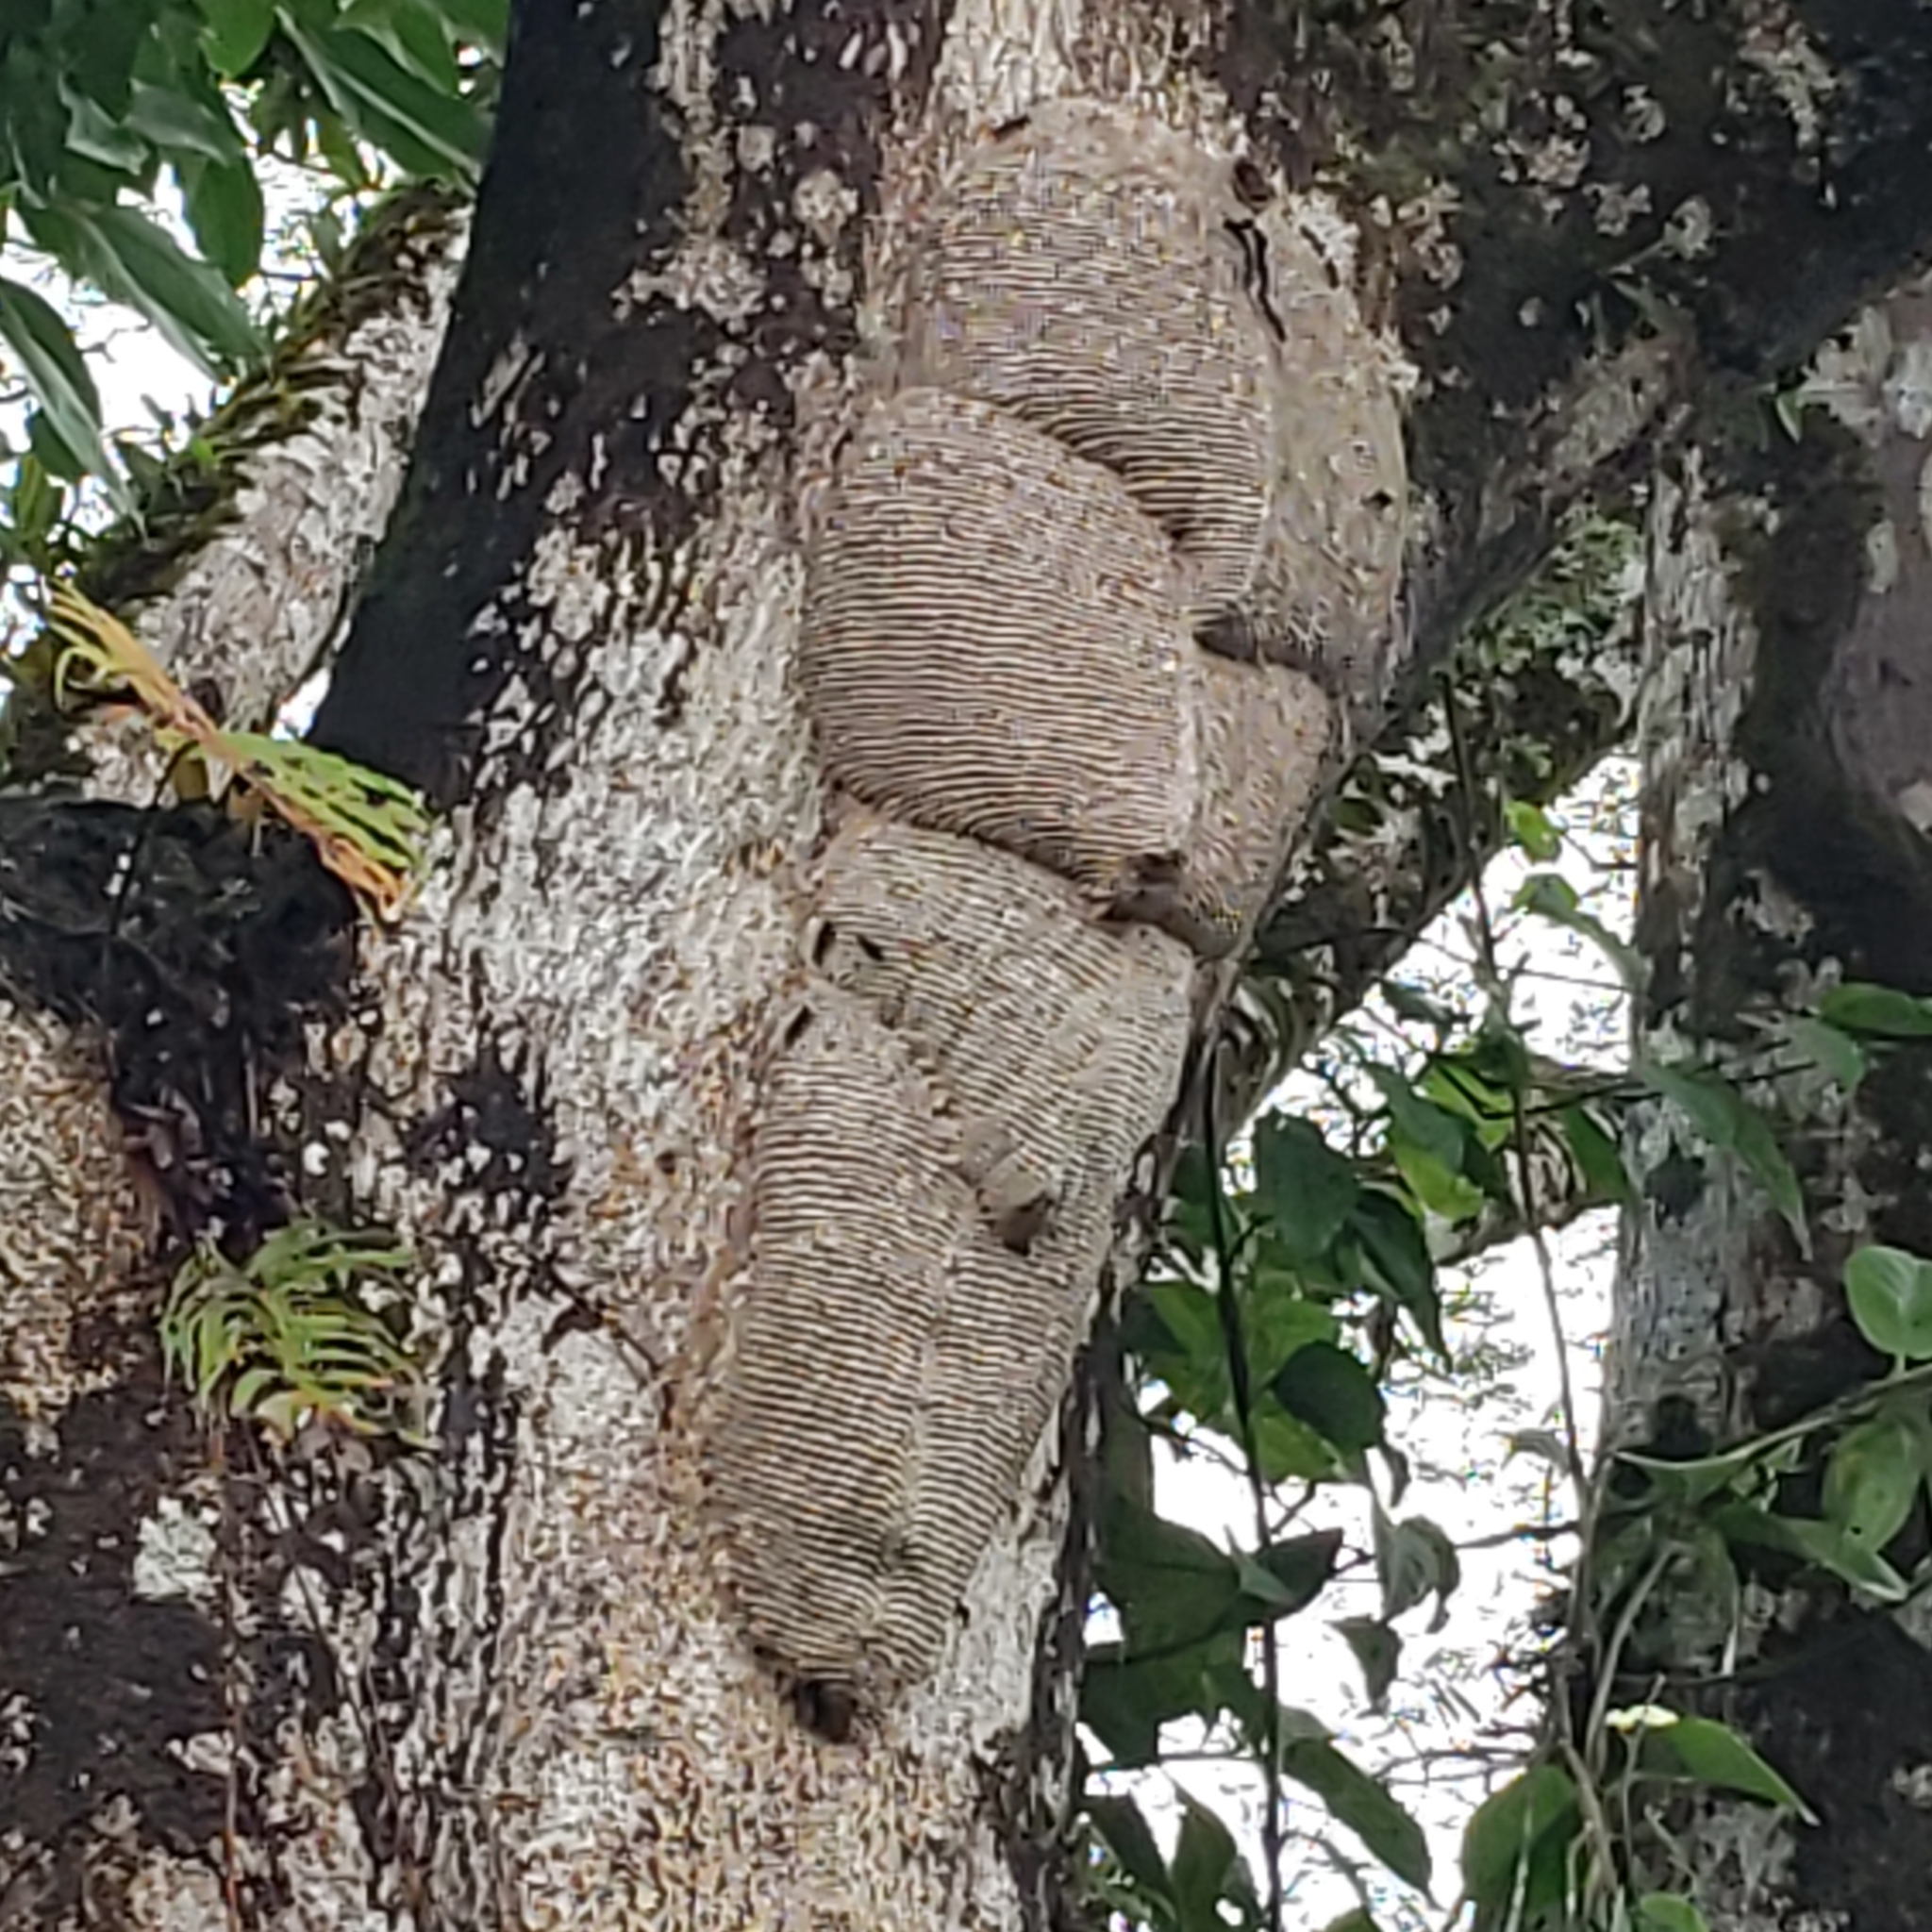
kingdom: Animalia
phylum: Arthropoda
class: Insecta
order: Hymenoptera
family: Vespidae
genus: Synoeca
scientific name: Synoeca septentrionalis
